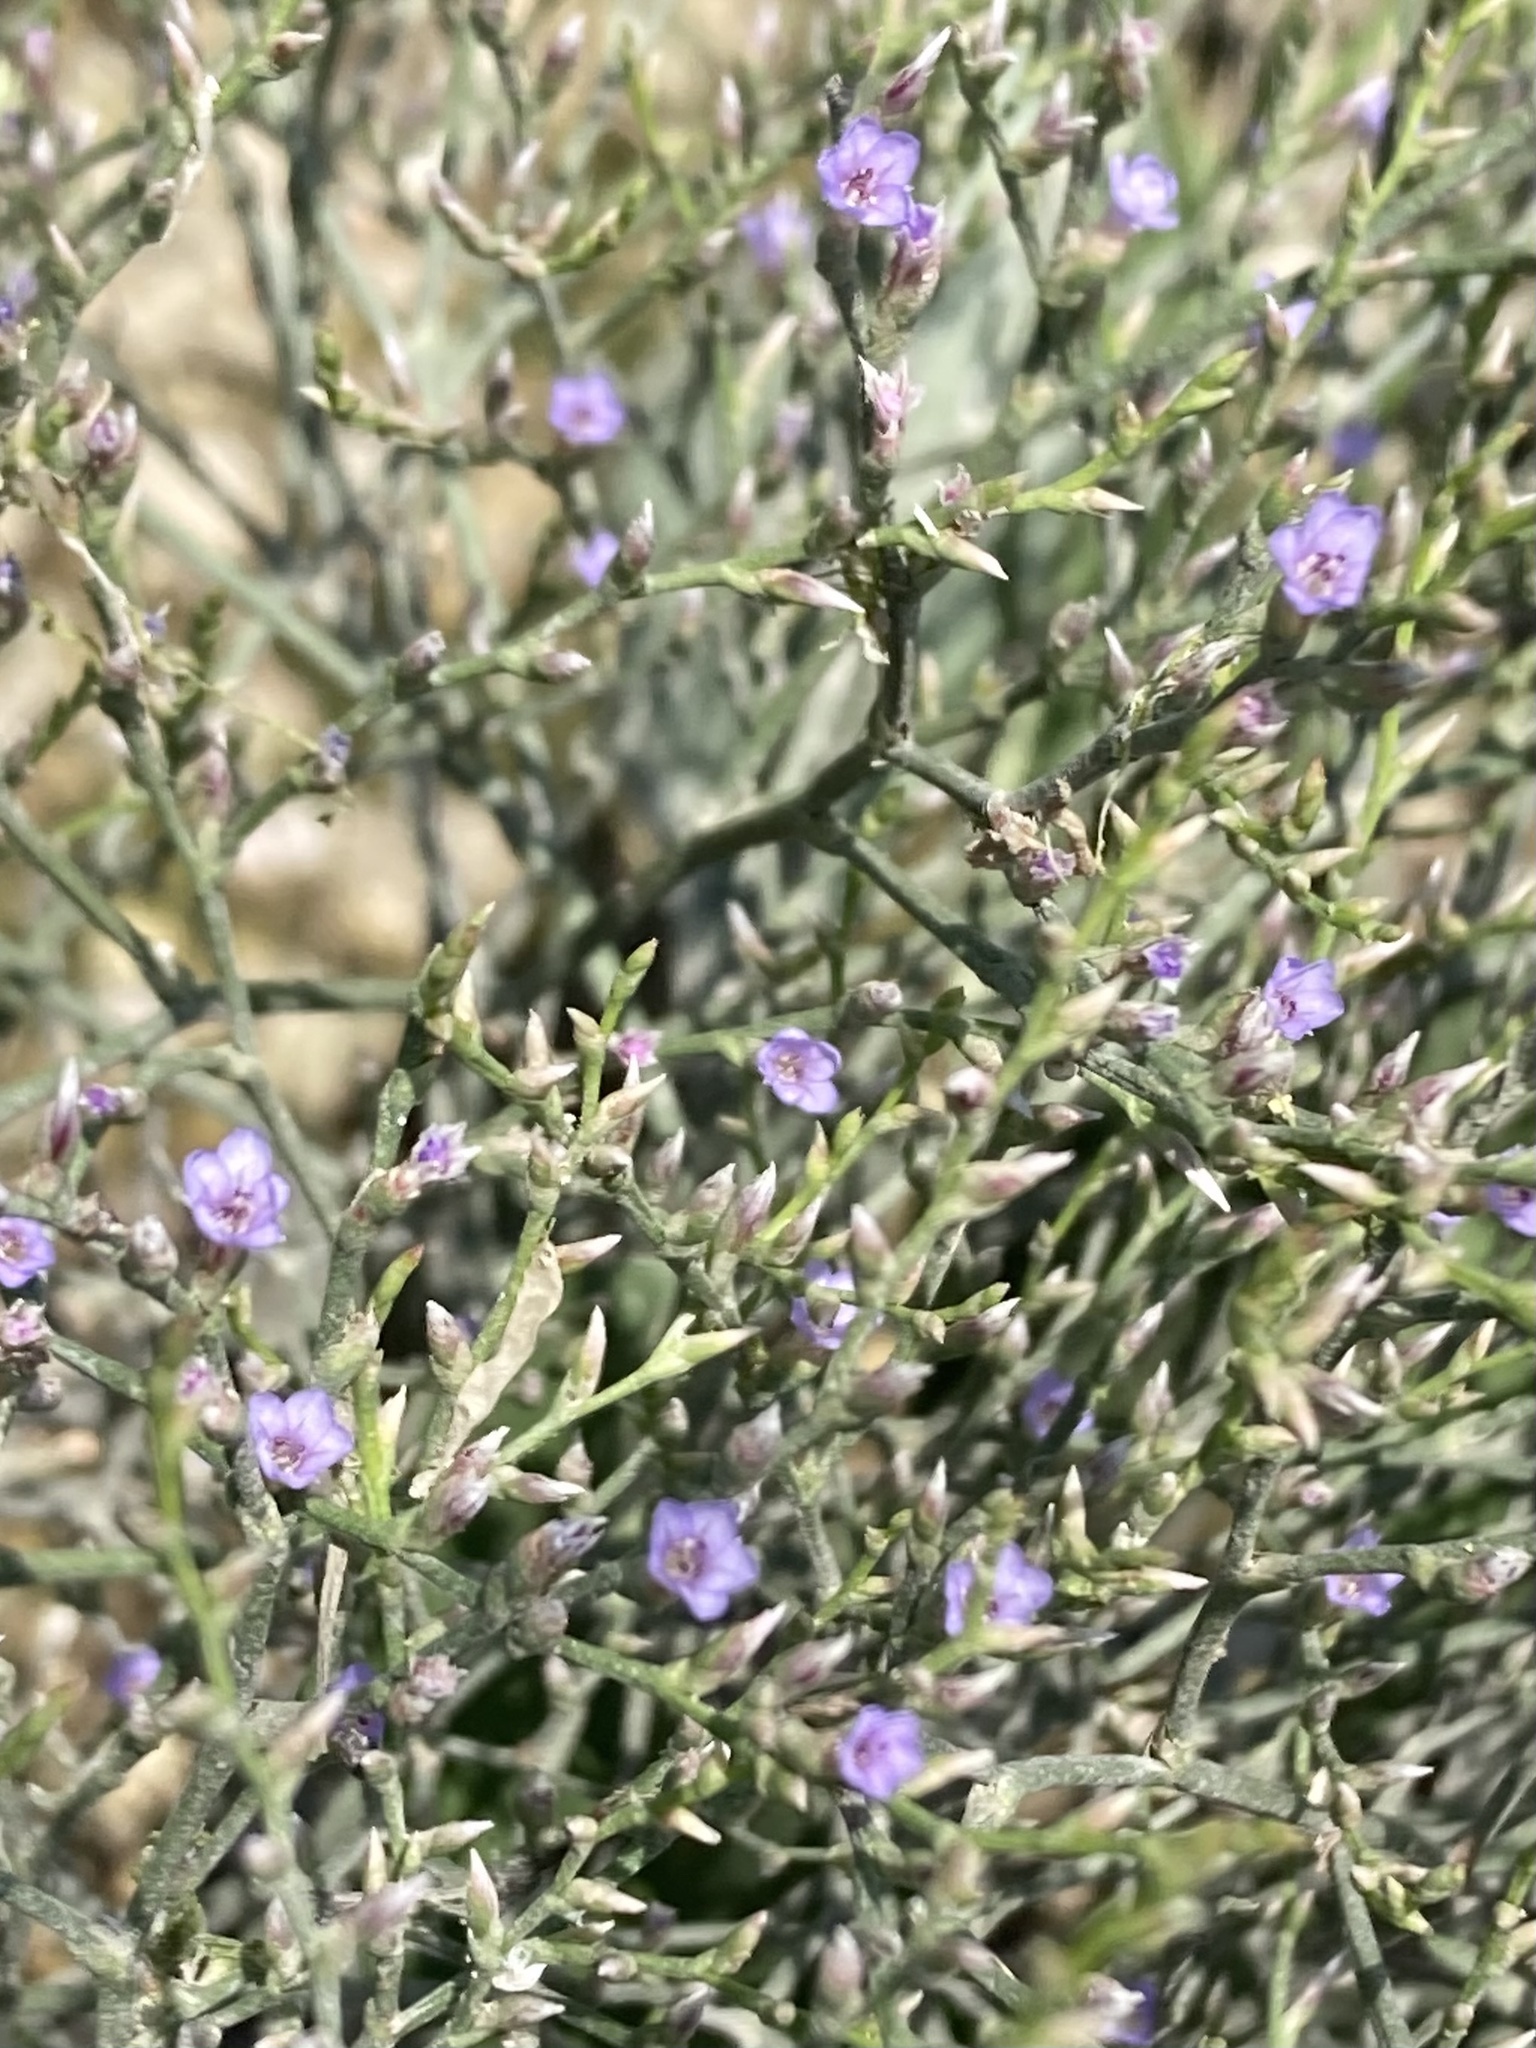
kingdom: Plantae
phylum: Tracheophyta
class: Magnoliopsida
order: Caryophyllales
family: Plumbaginaceae
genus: Limonium
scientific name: Limonium carolinianum
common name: Carolina sea lavender
